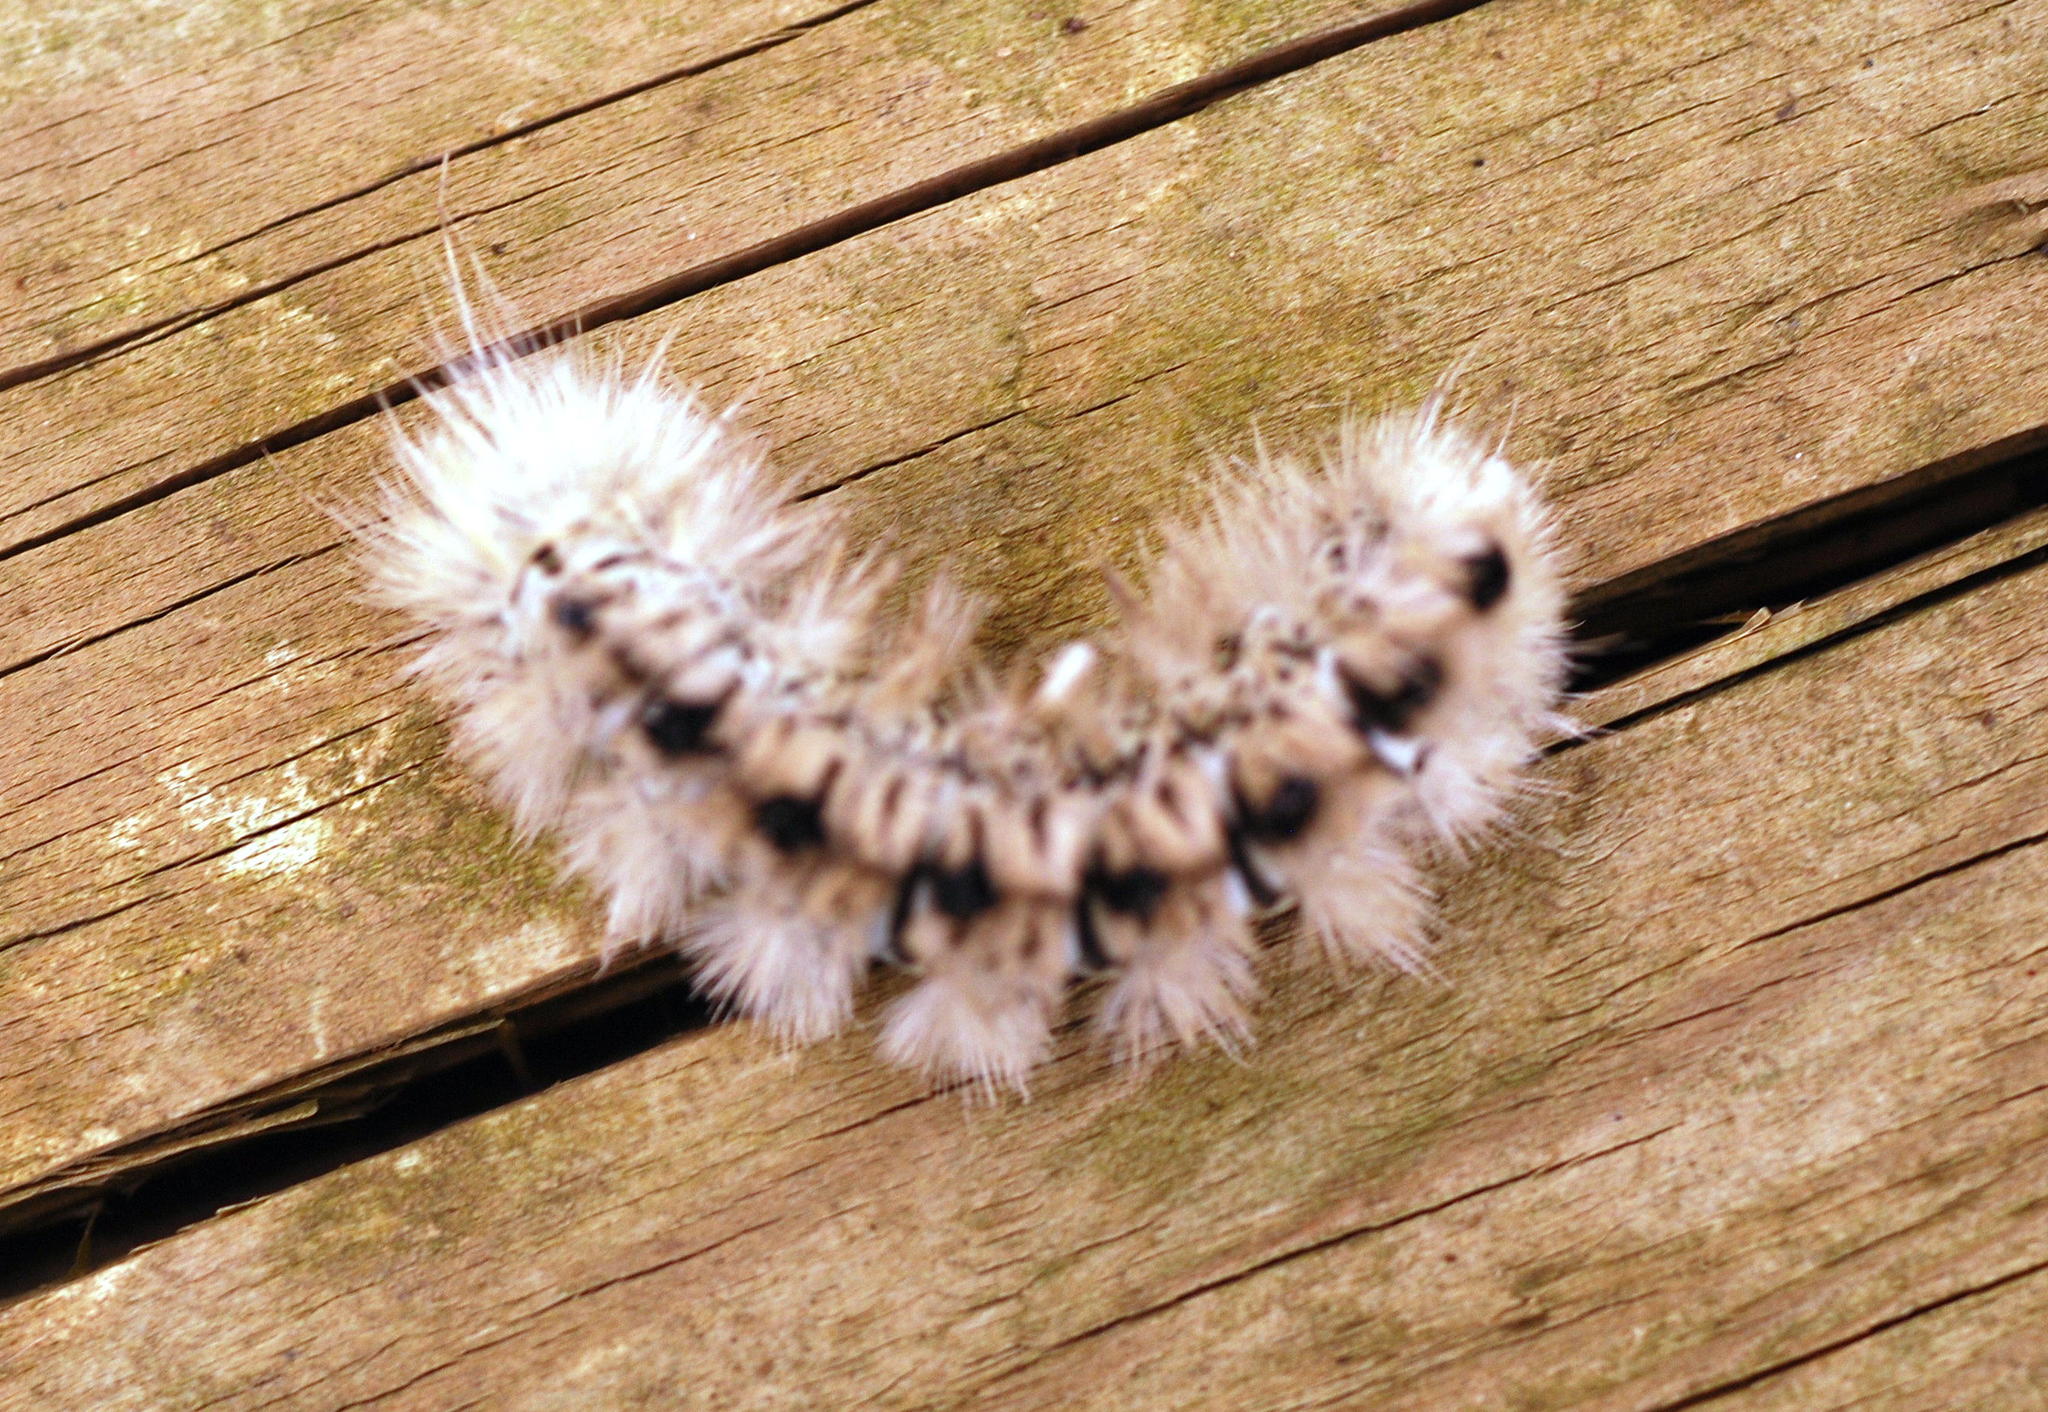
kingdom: Animalia
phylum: Arthropoda
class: Insecta
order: Lepidoptera
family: Erebidae
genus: Lophocampa
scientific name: Lophocampa caryae
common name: Hickory tussock moth
